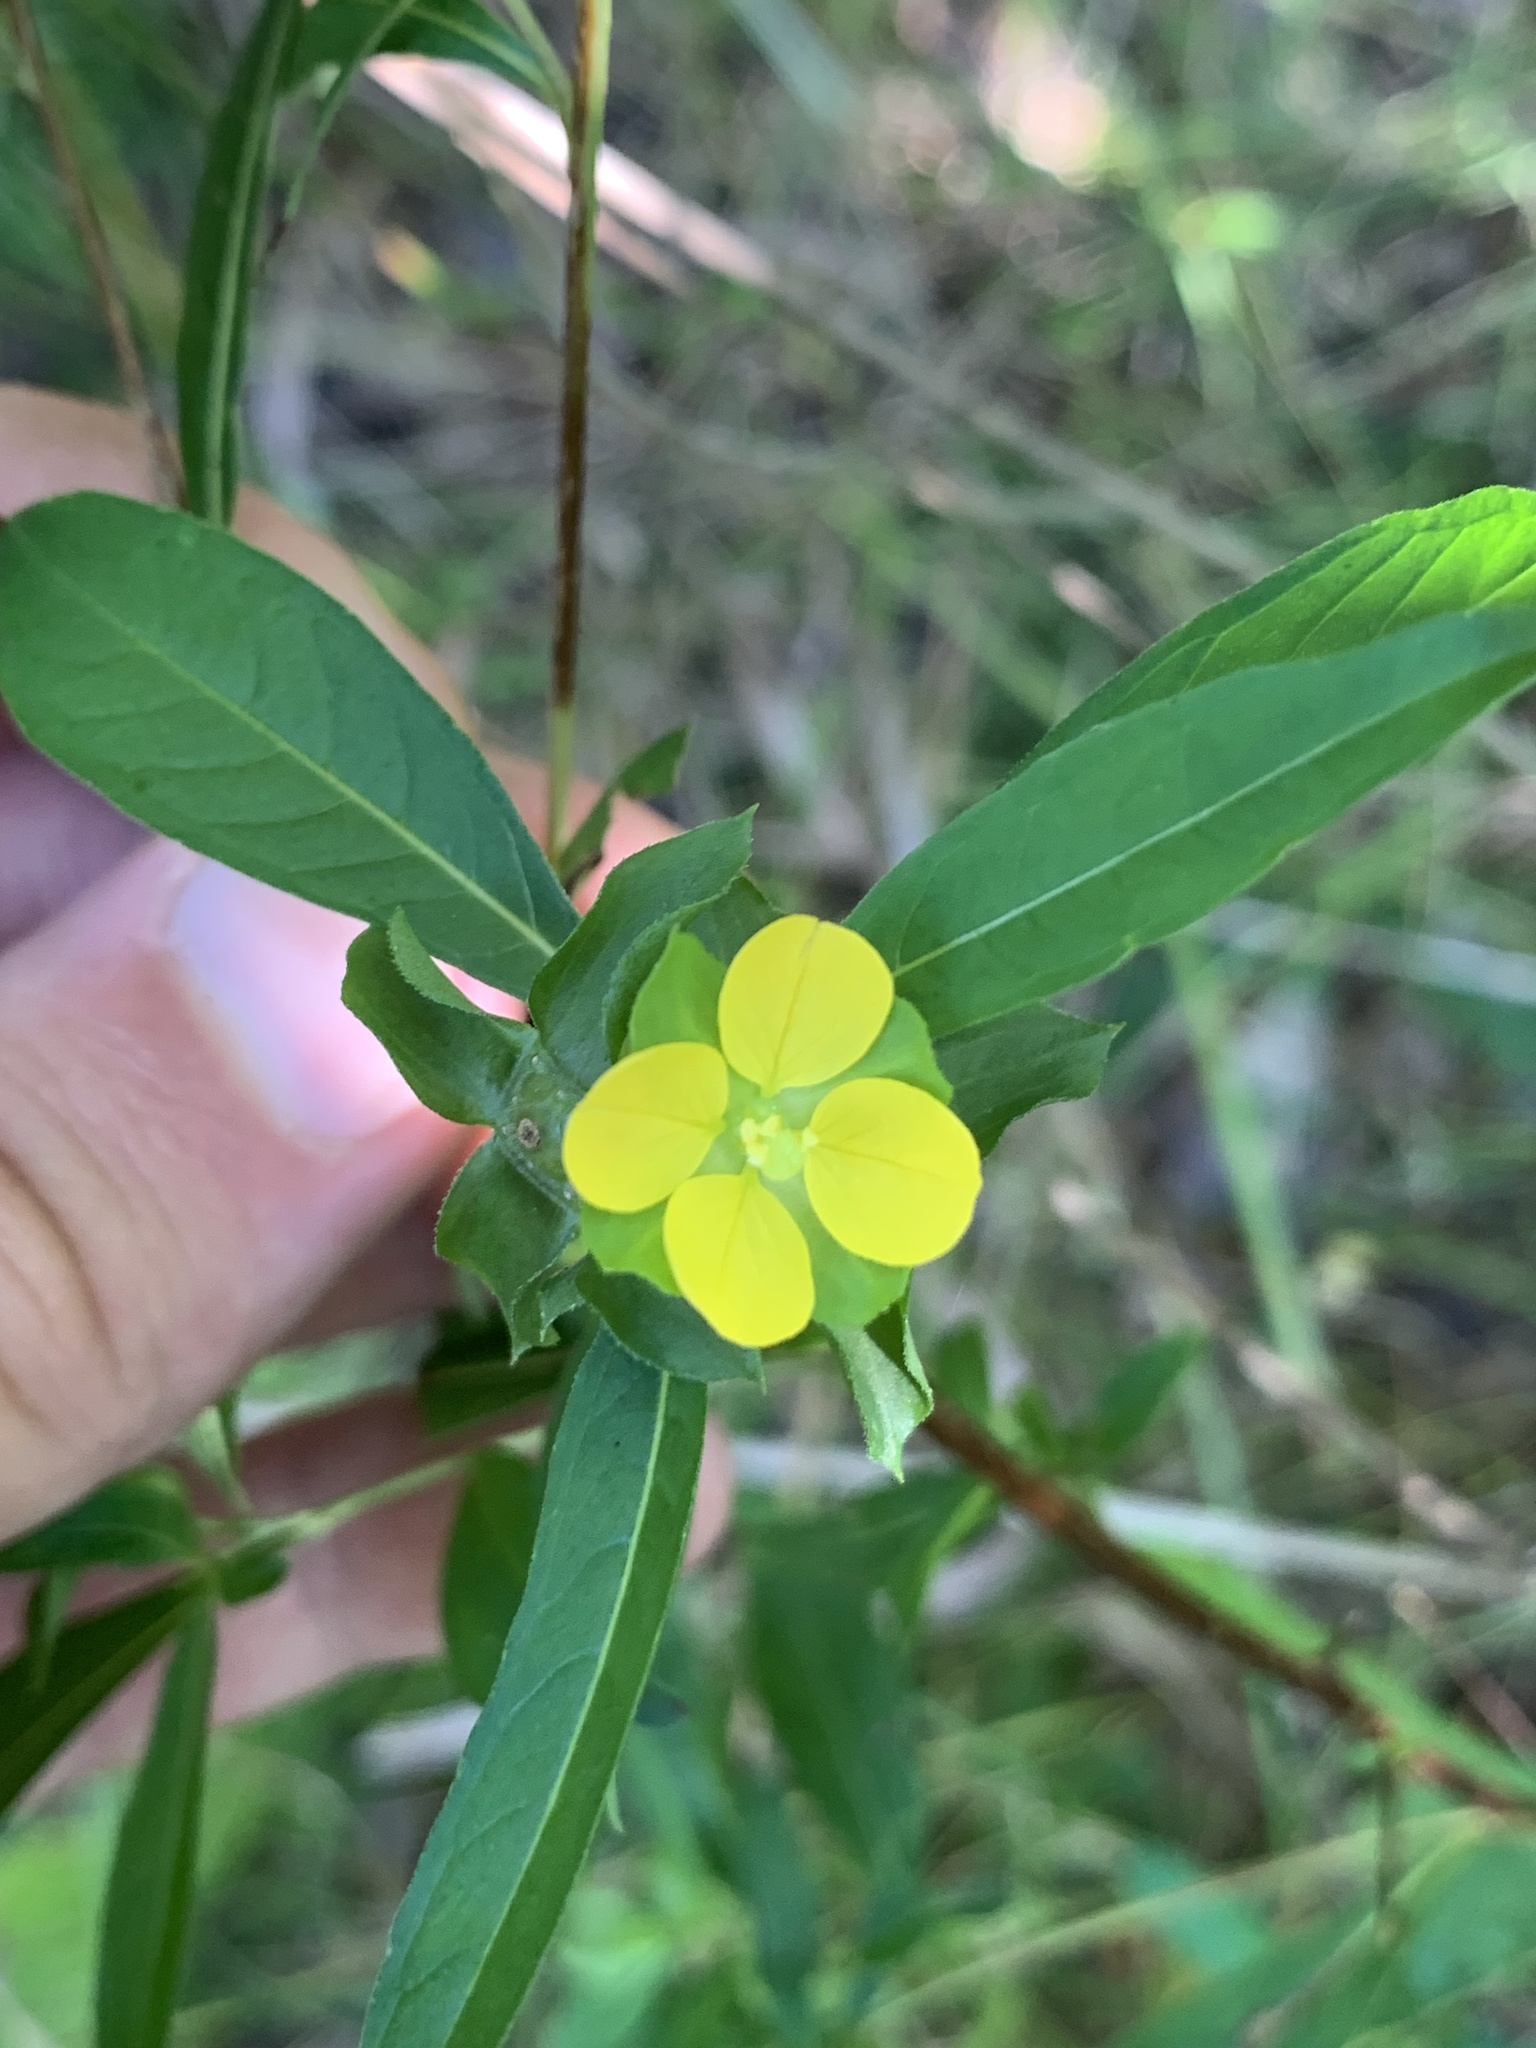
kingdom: Plantae
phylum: Tracheophyta
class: Magnoliopsida
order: Myrtales
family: Onagraceae
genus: Ludwigia
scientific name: Ludwigia alternifolia
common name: Rattlebox
